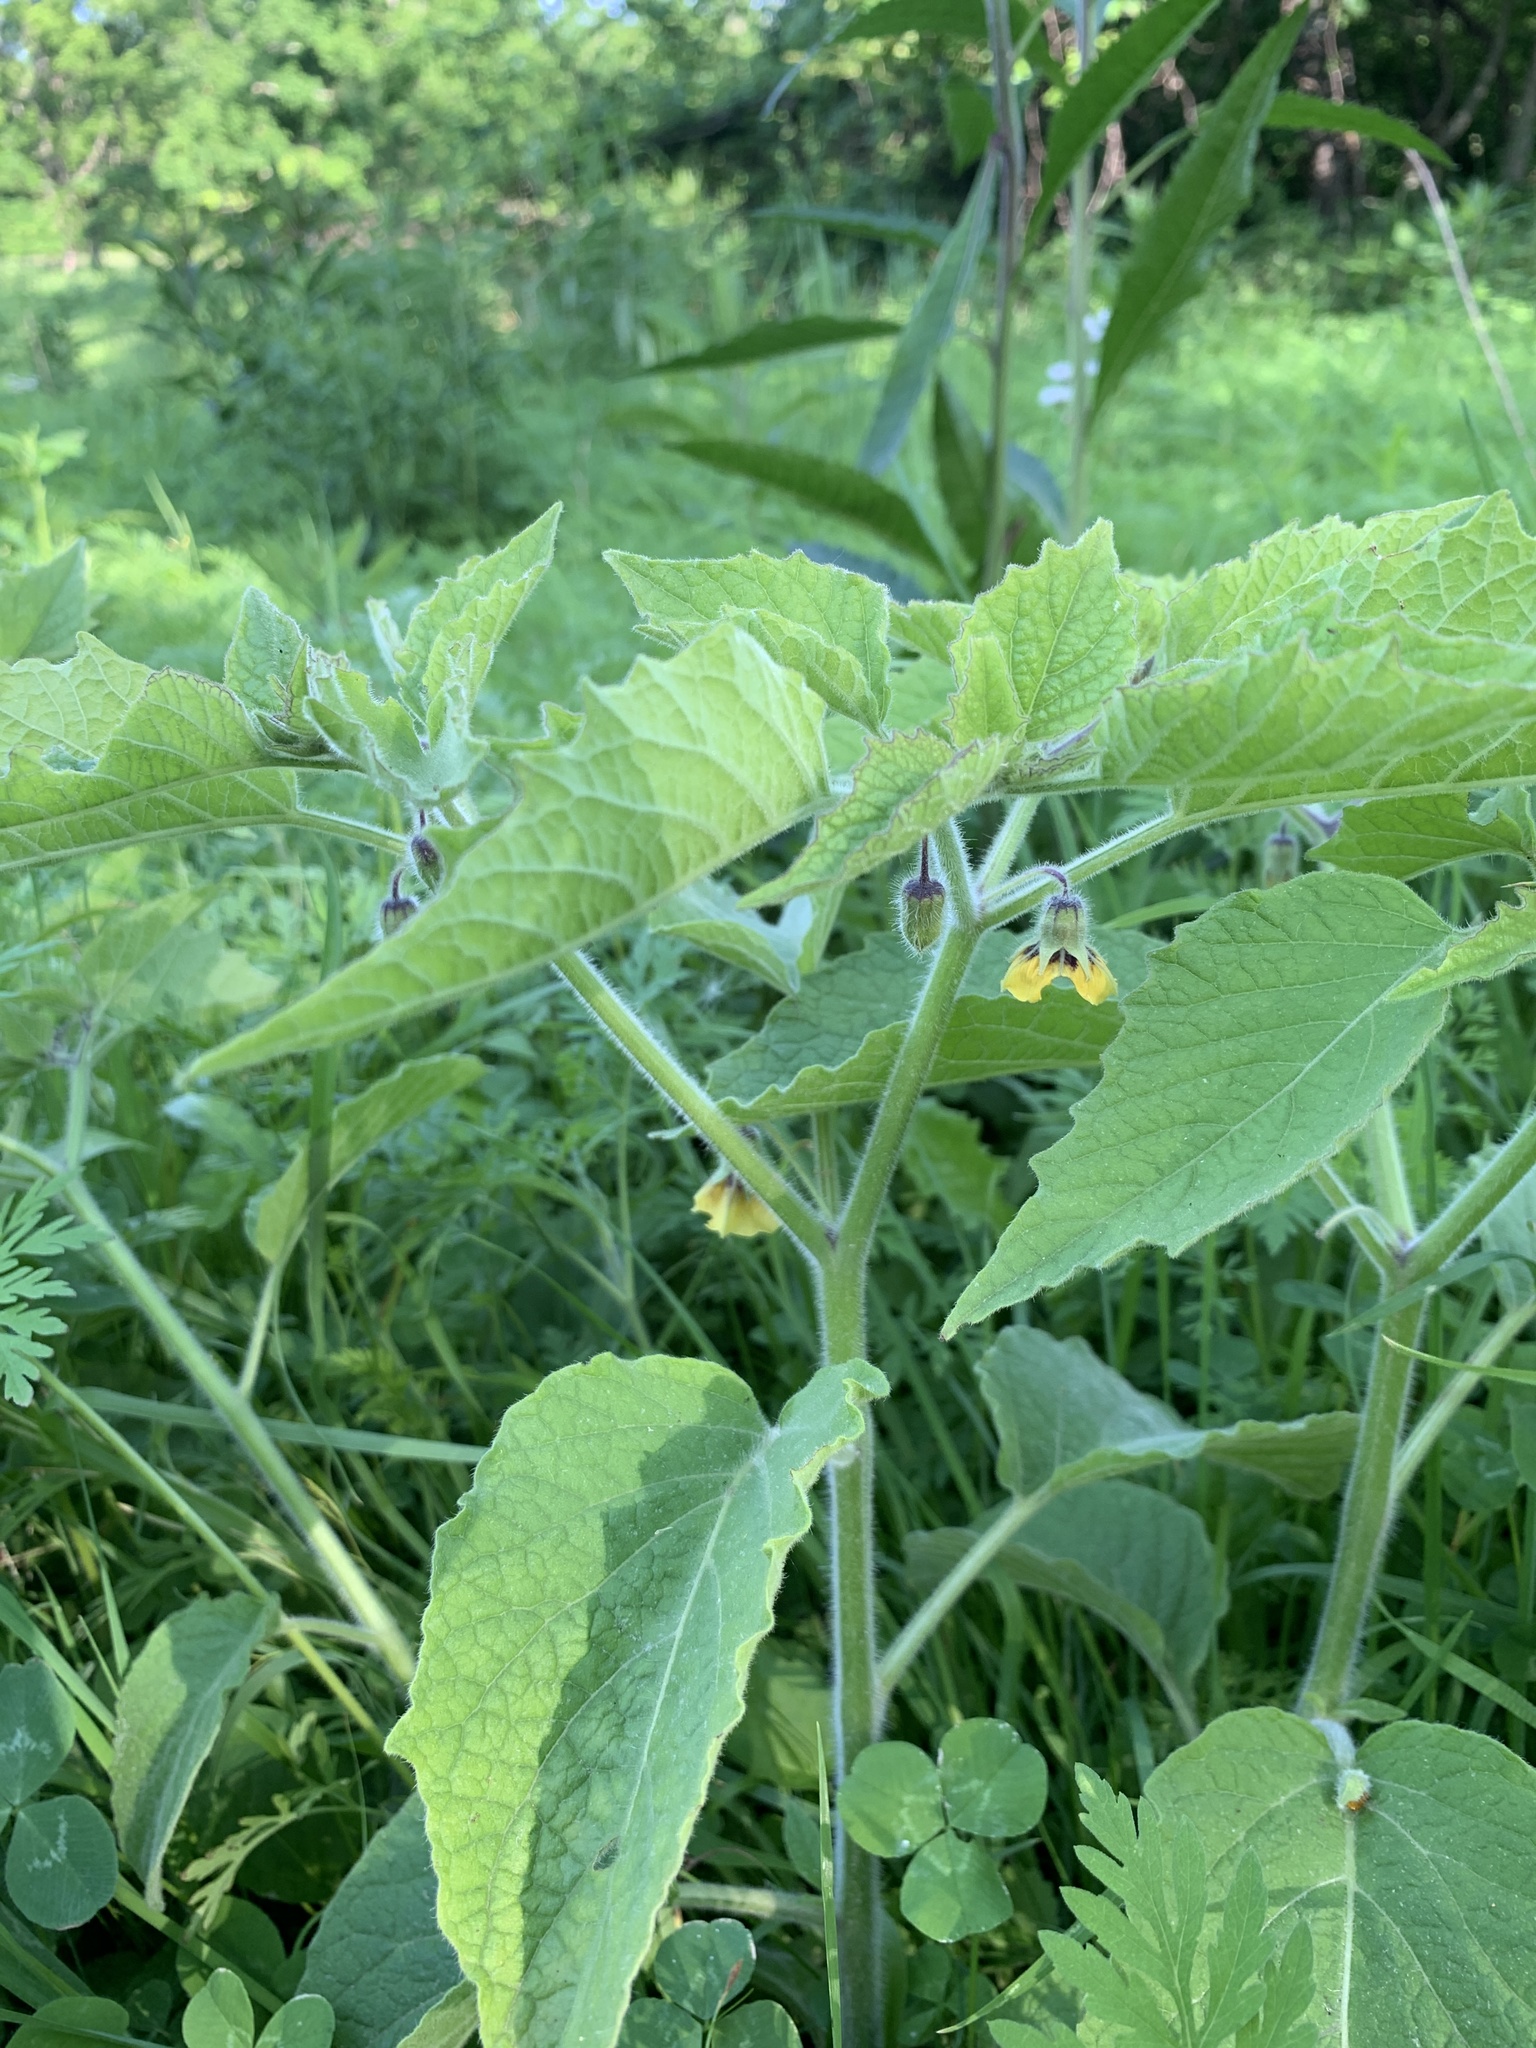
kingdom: Plantae
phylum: Tracheophyta
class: Magnoliopsida
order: Solanales
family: Solanaceae
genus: Physalis
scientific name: Physalis heterophylla
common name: Clammy ground-cherry
